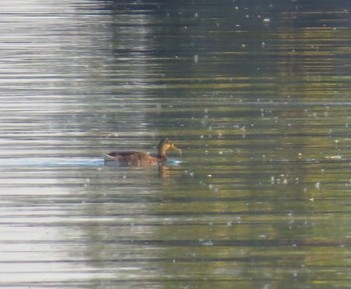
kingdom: Animalia
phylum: Chordata
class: Aves
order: Anseriformes
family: Anatidae
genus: Anas
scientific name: Anas platyrhynchos
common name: Mallard
